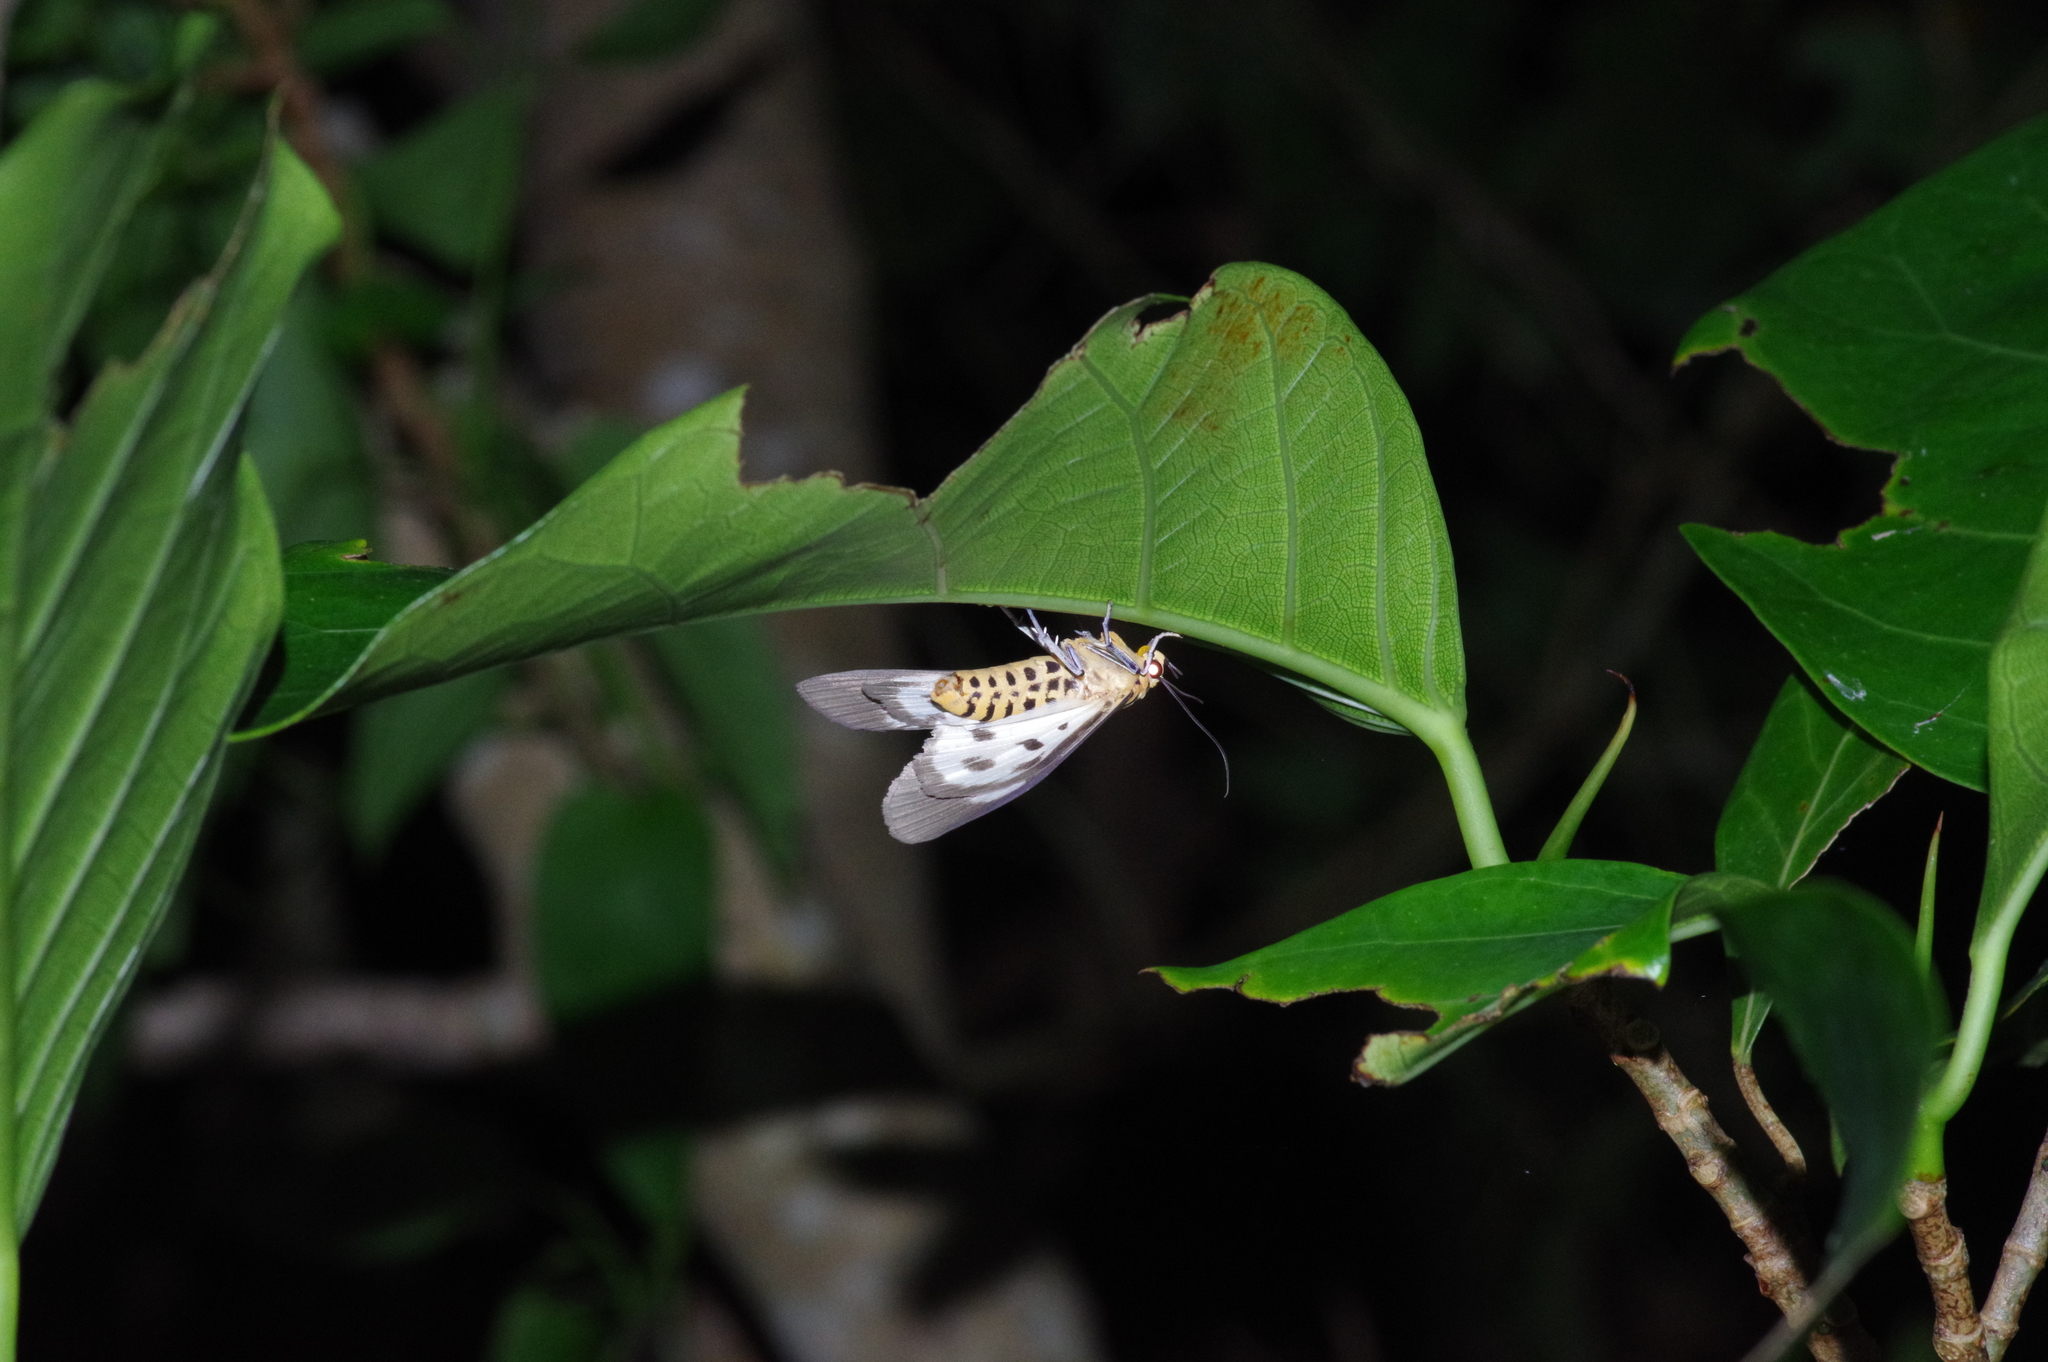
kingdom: Animalia
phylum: Arthropoda
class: Insecta
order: Lepidoptera
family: Erebidae
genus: Asota
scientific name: Asota plana
